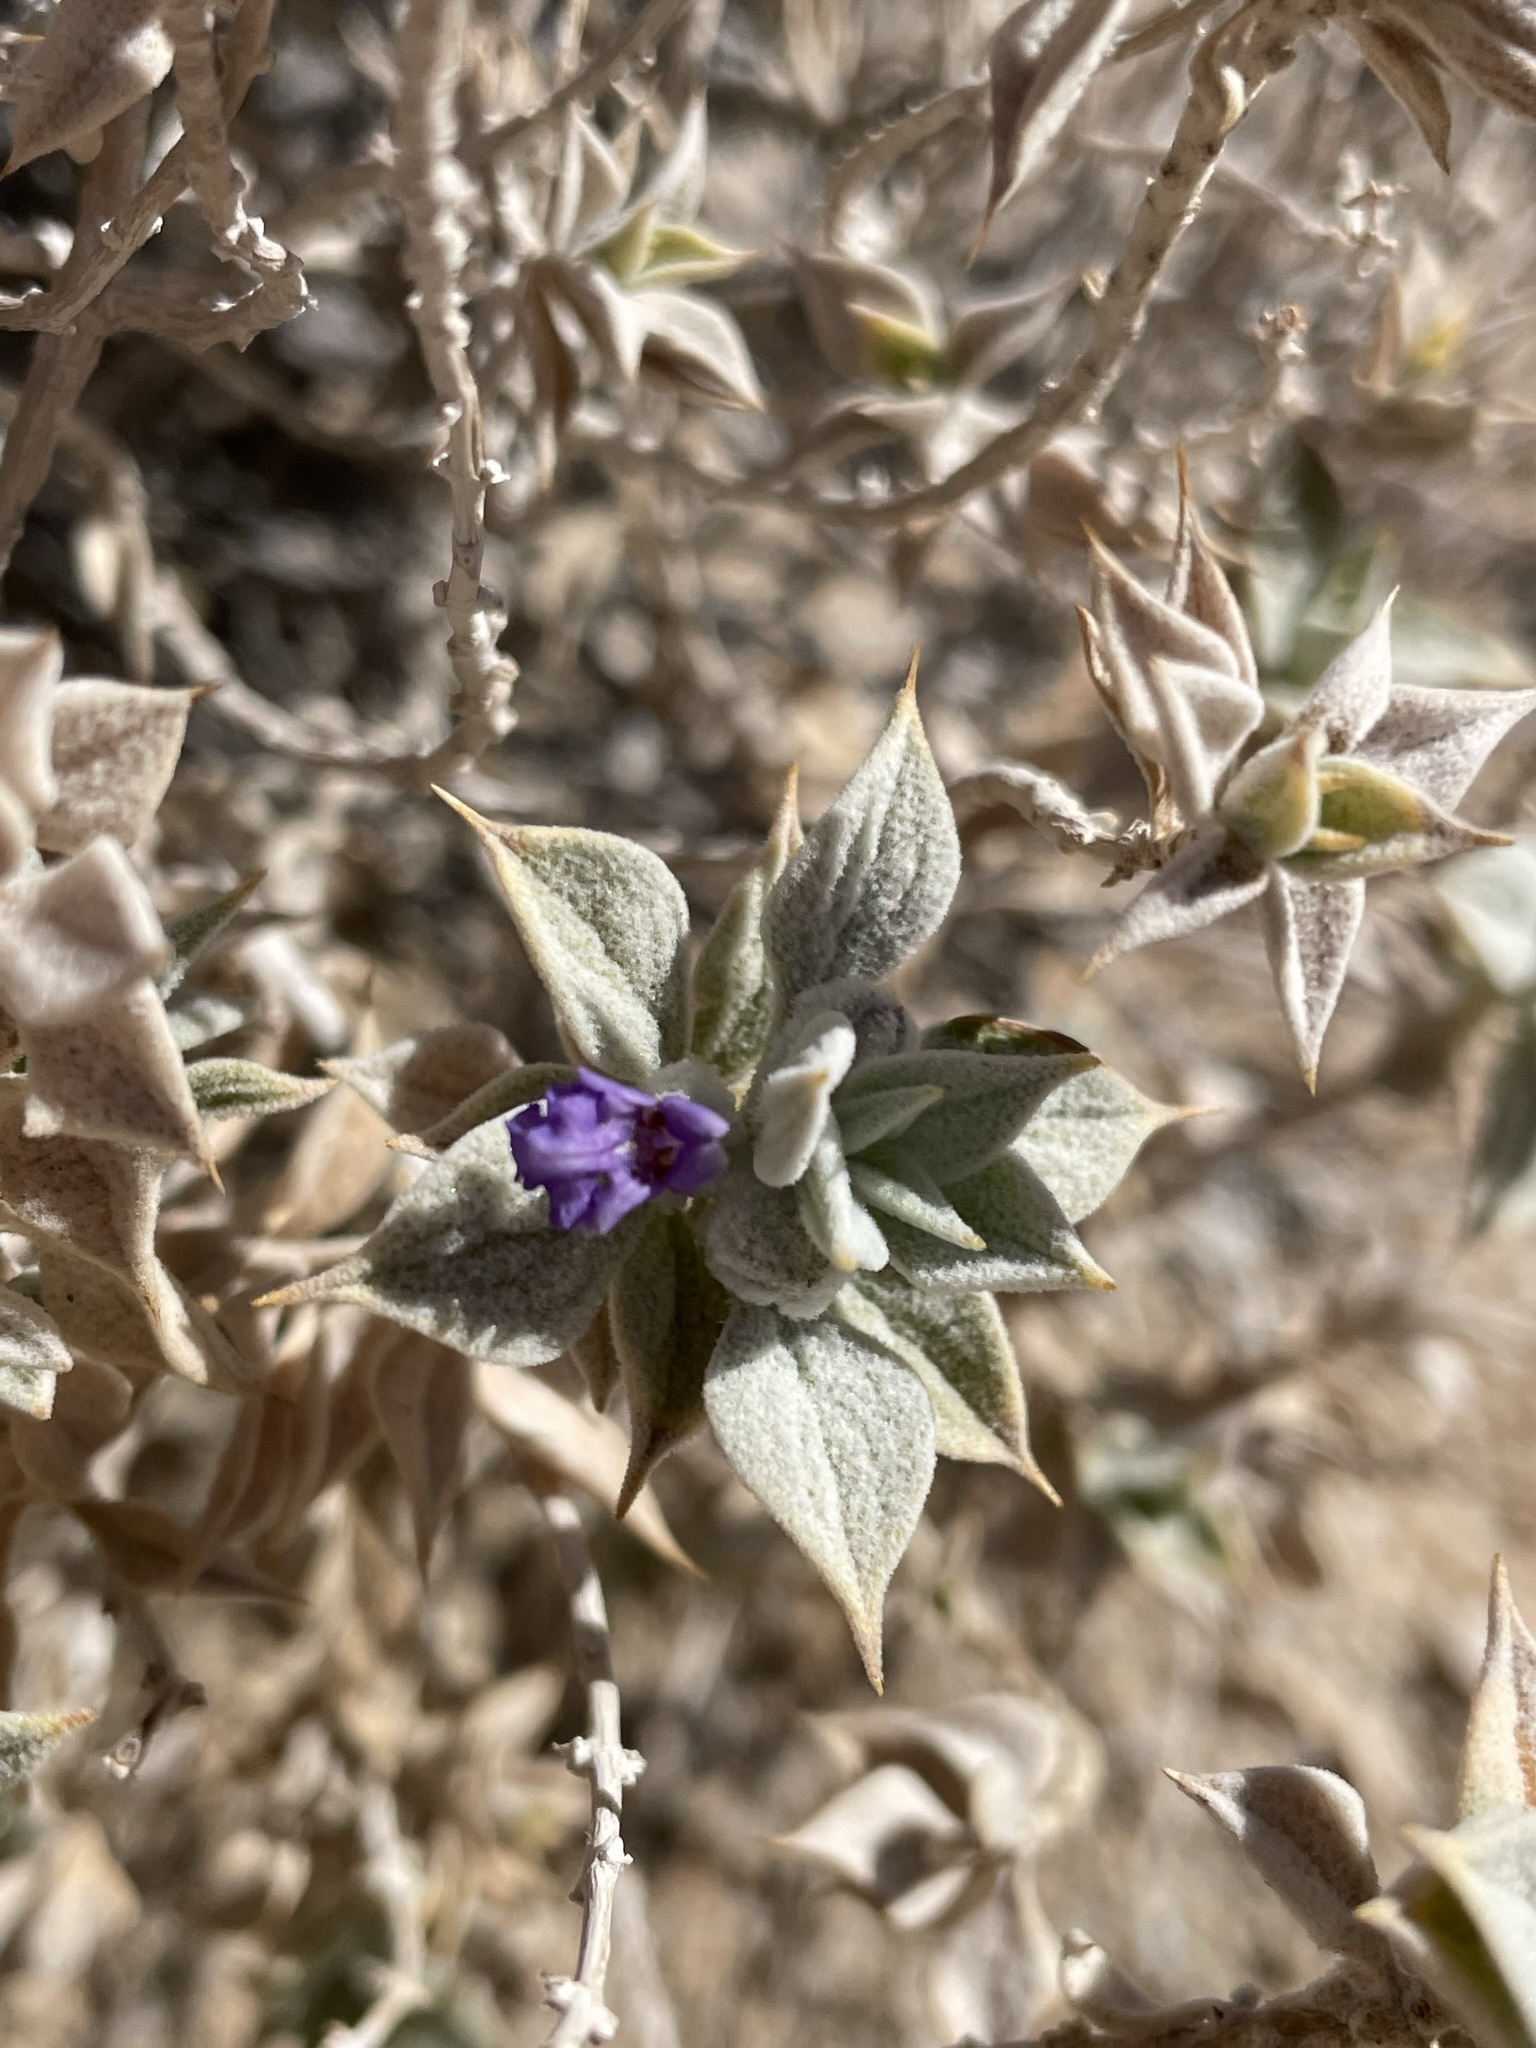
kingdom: Plantae
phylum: Tracheophyta
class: Magnoliopsida
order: Lamiales
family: Lamiaceae
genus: Salvia
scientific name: Salvia funerea
